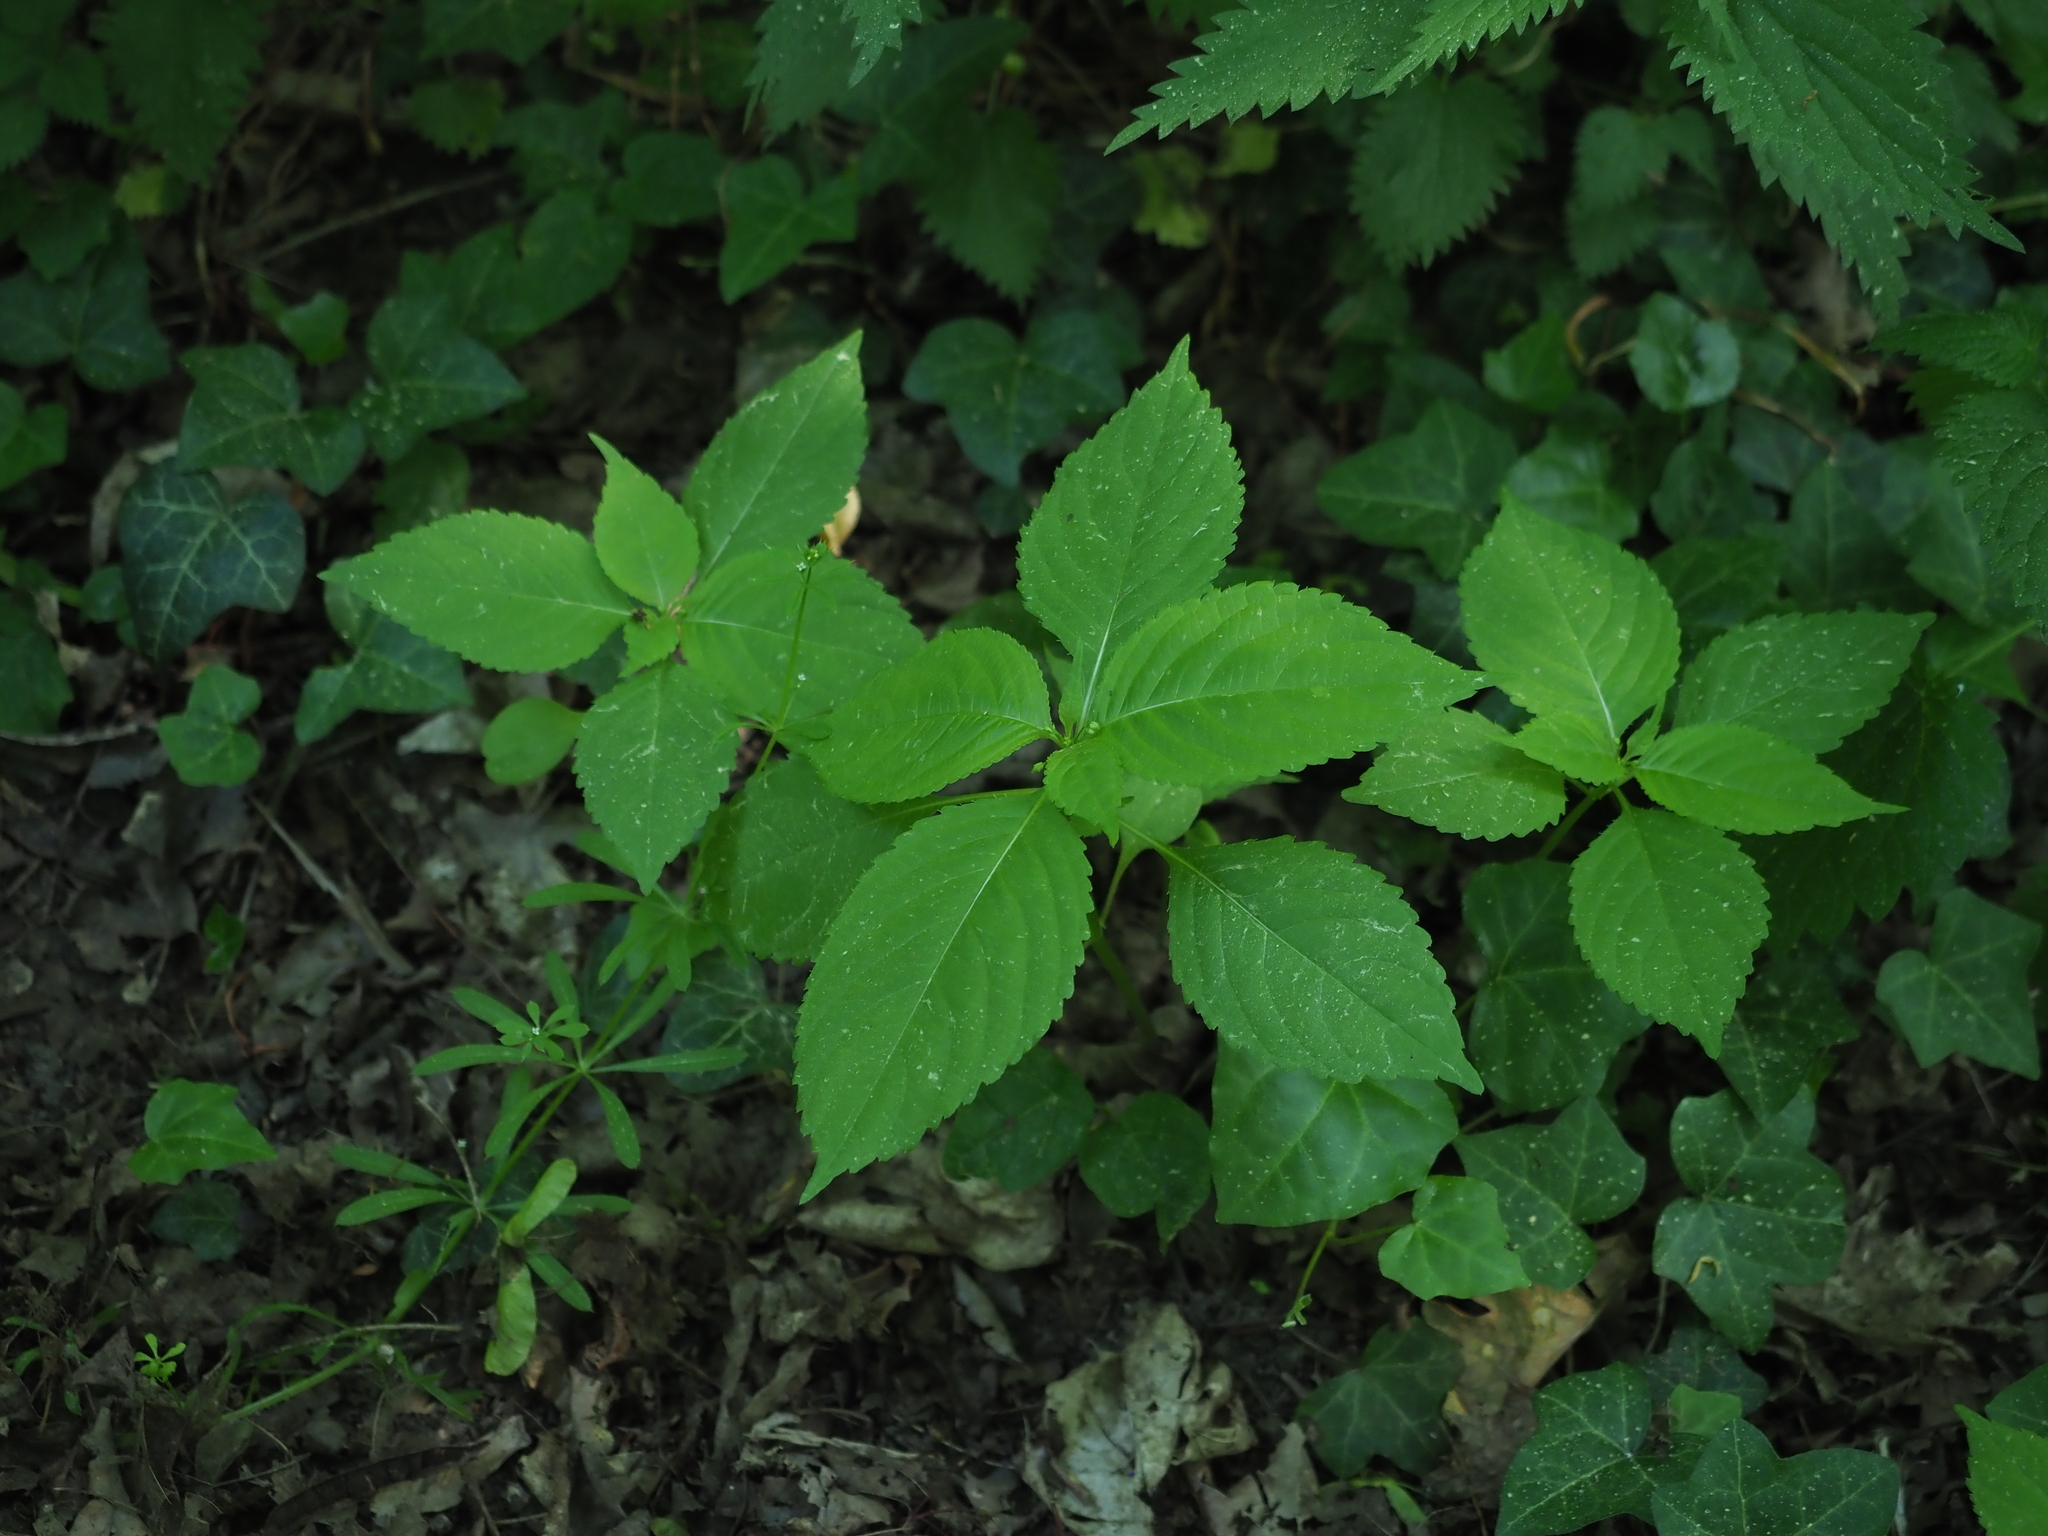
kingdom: Plantae
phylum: Tracheophyta
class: Magnoliopsida
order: Ericales
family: Balsaminaceae
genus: Impatiens
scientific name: Impatiens parviflora
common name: Small balsam
